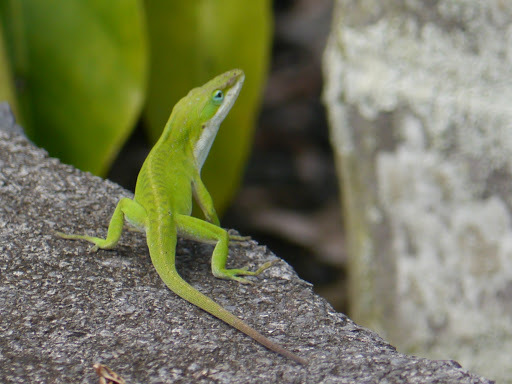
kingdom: Animalia
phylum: Chordata
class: Squamata
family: Dactyloidae
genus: Anolis
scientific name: Anolis carolinensis
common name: Green anole
